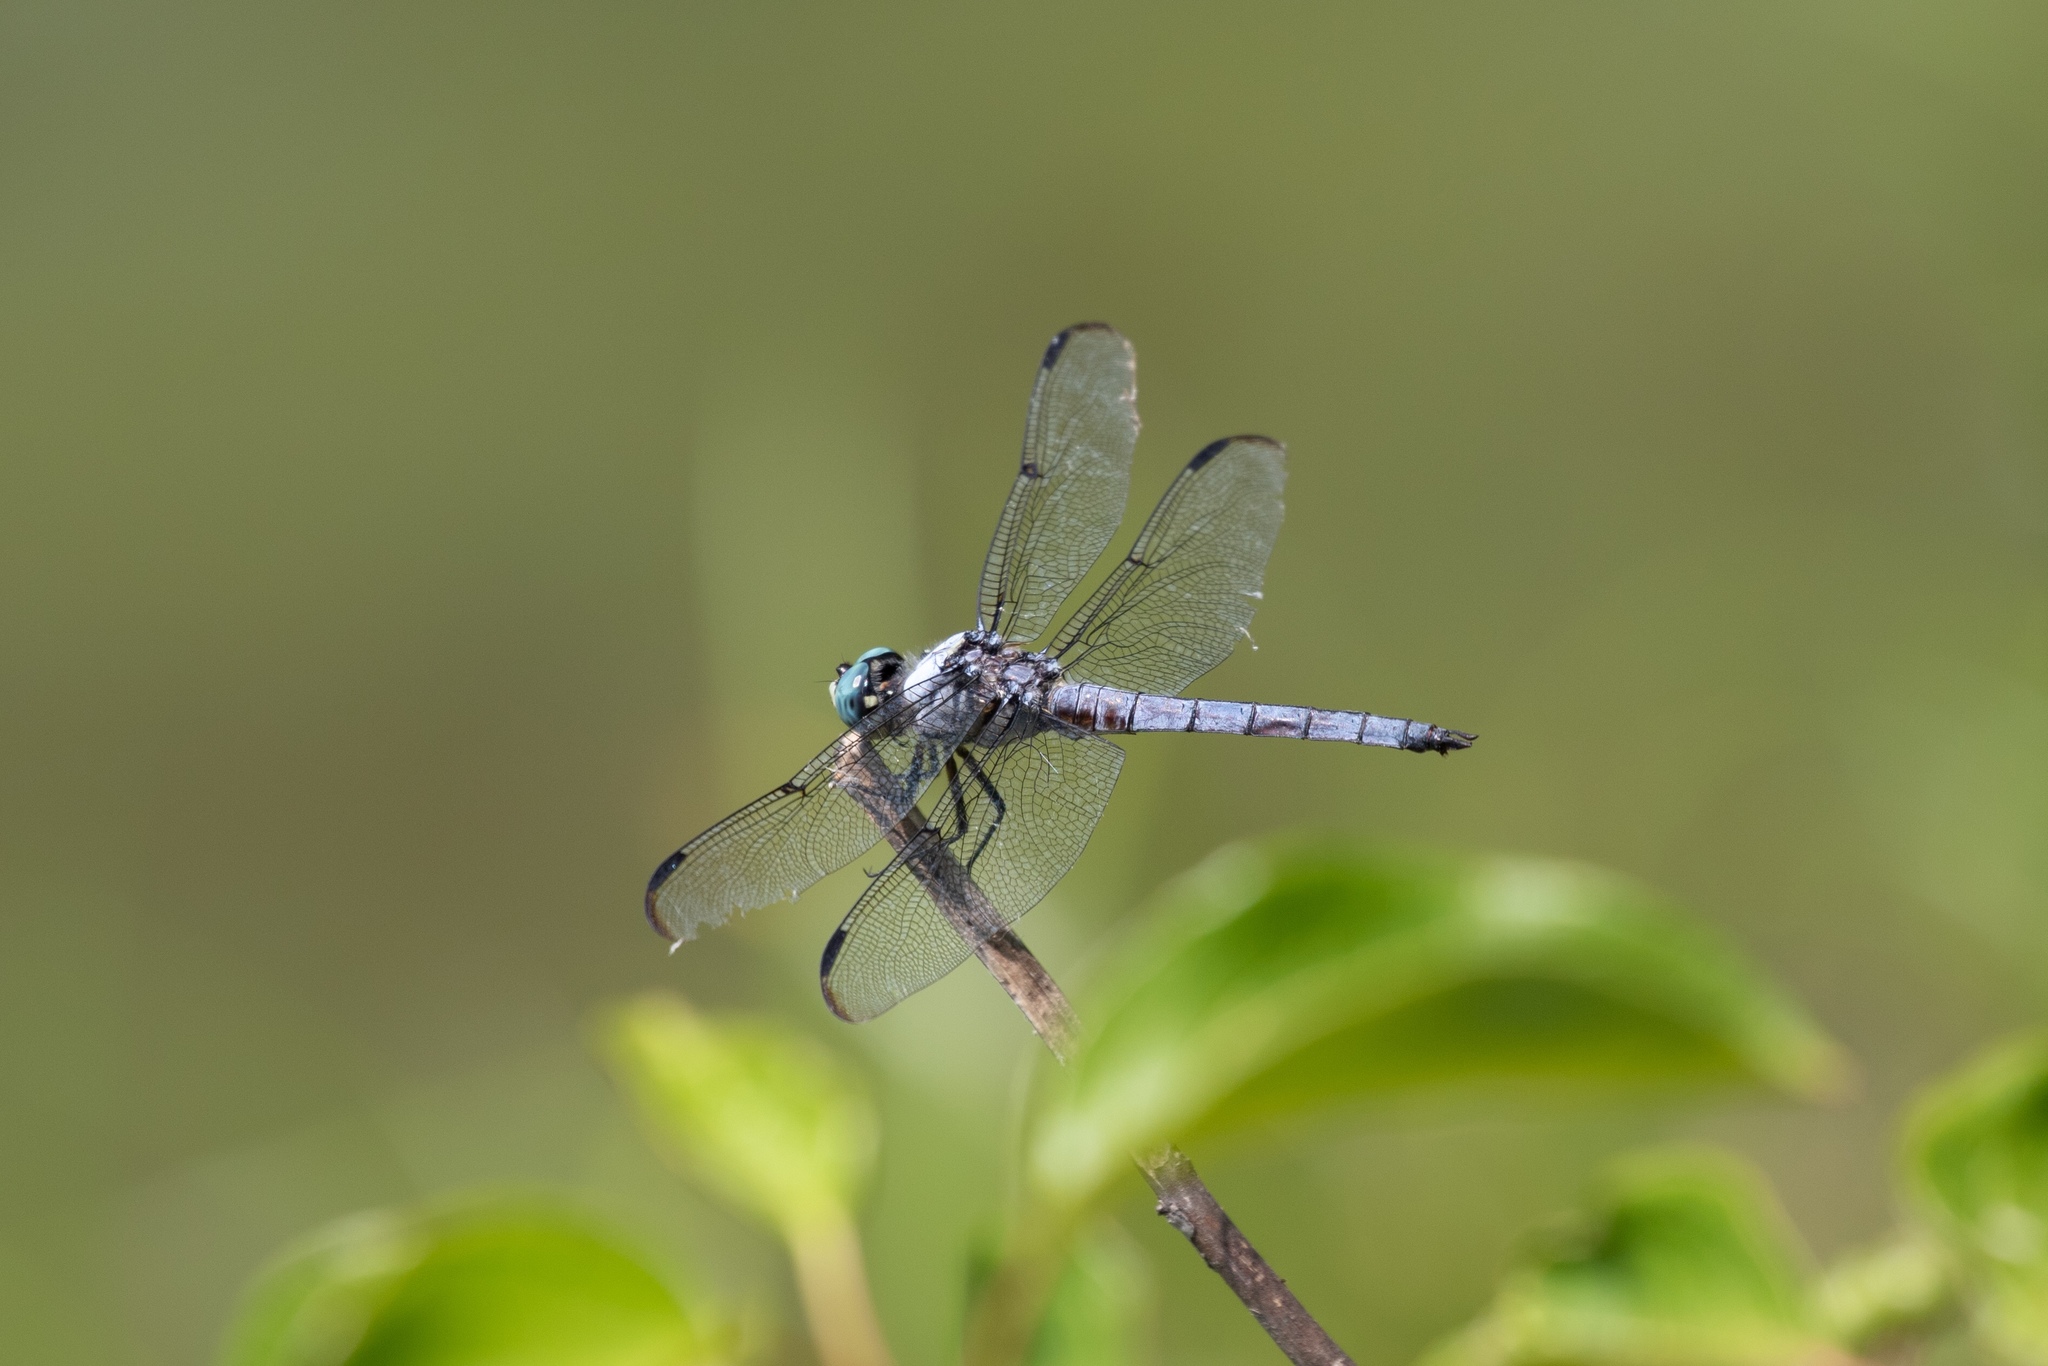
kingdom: Animalia
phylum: Arthropoda
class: Insecta
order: Odonata
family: Libellulidae
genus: Libellula
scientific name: Libellula vibrans
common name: Great blue skimmer
